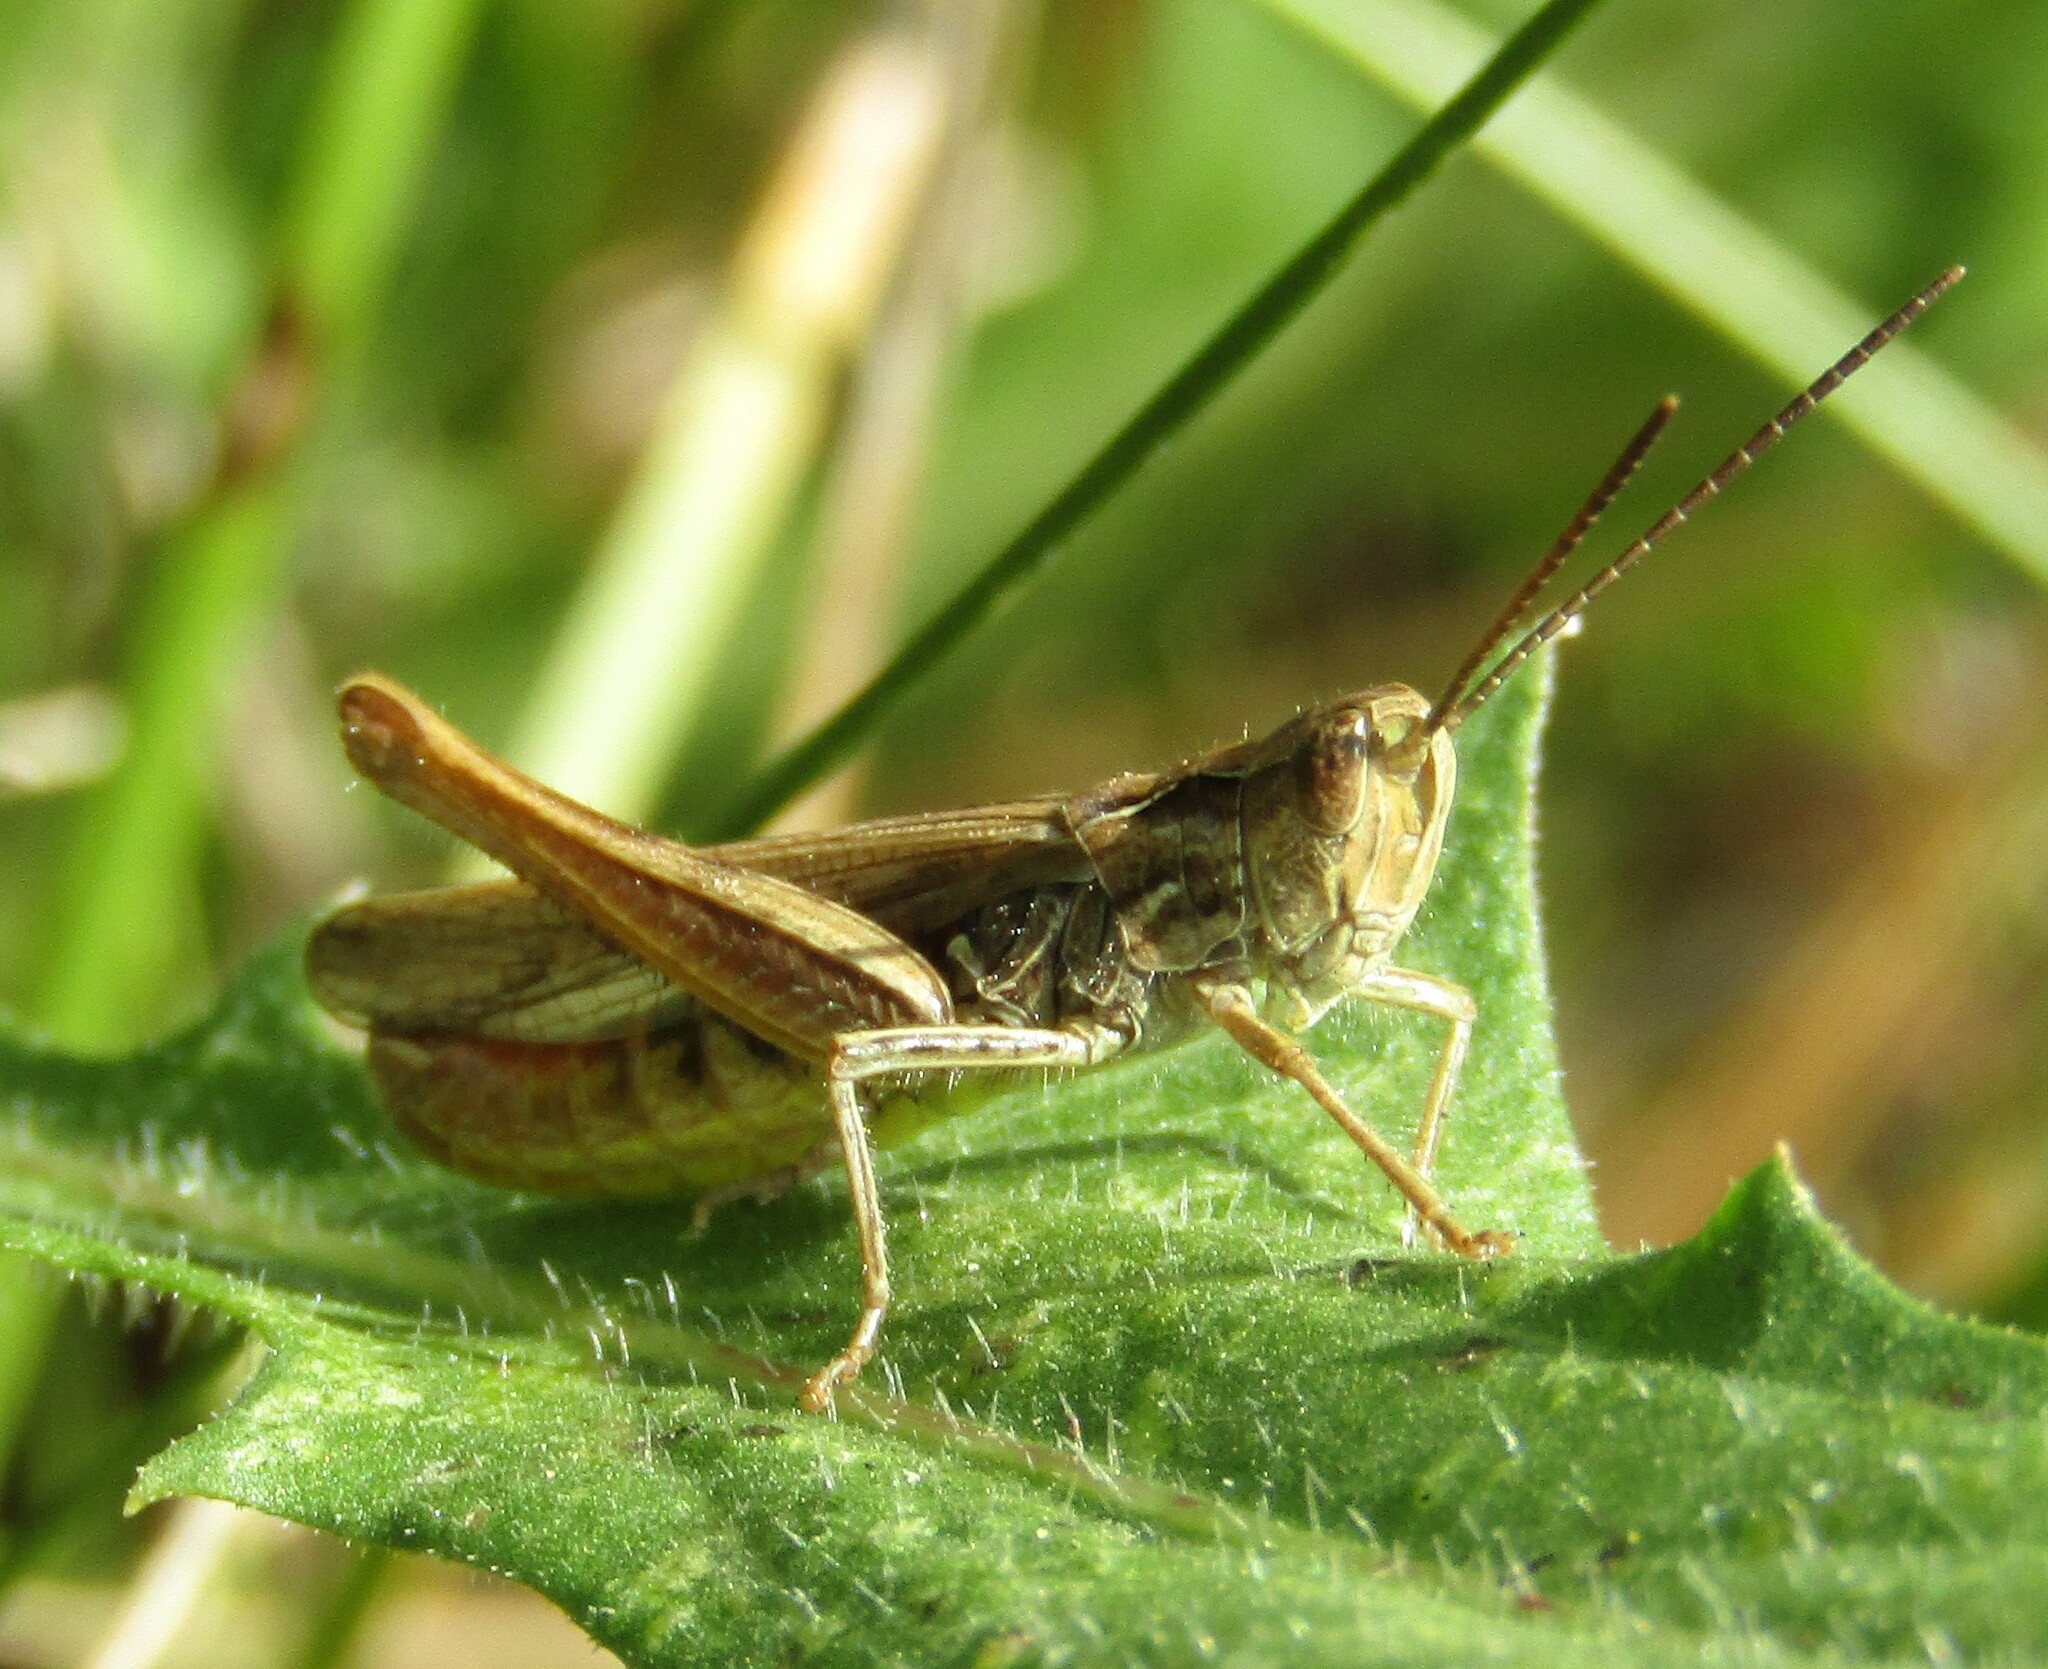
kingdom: Animalia
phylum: Arthropoda
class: Insecta
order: Orthoptera
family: Acrididae
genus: Chorthippus
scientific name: Chorthippus mollis
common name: Lesser field grasshopper
